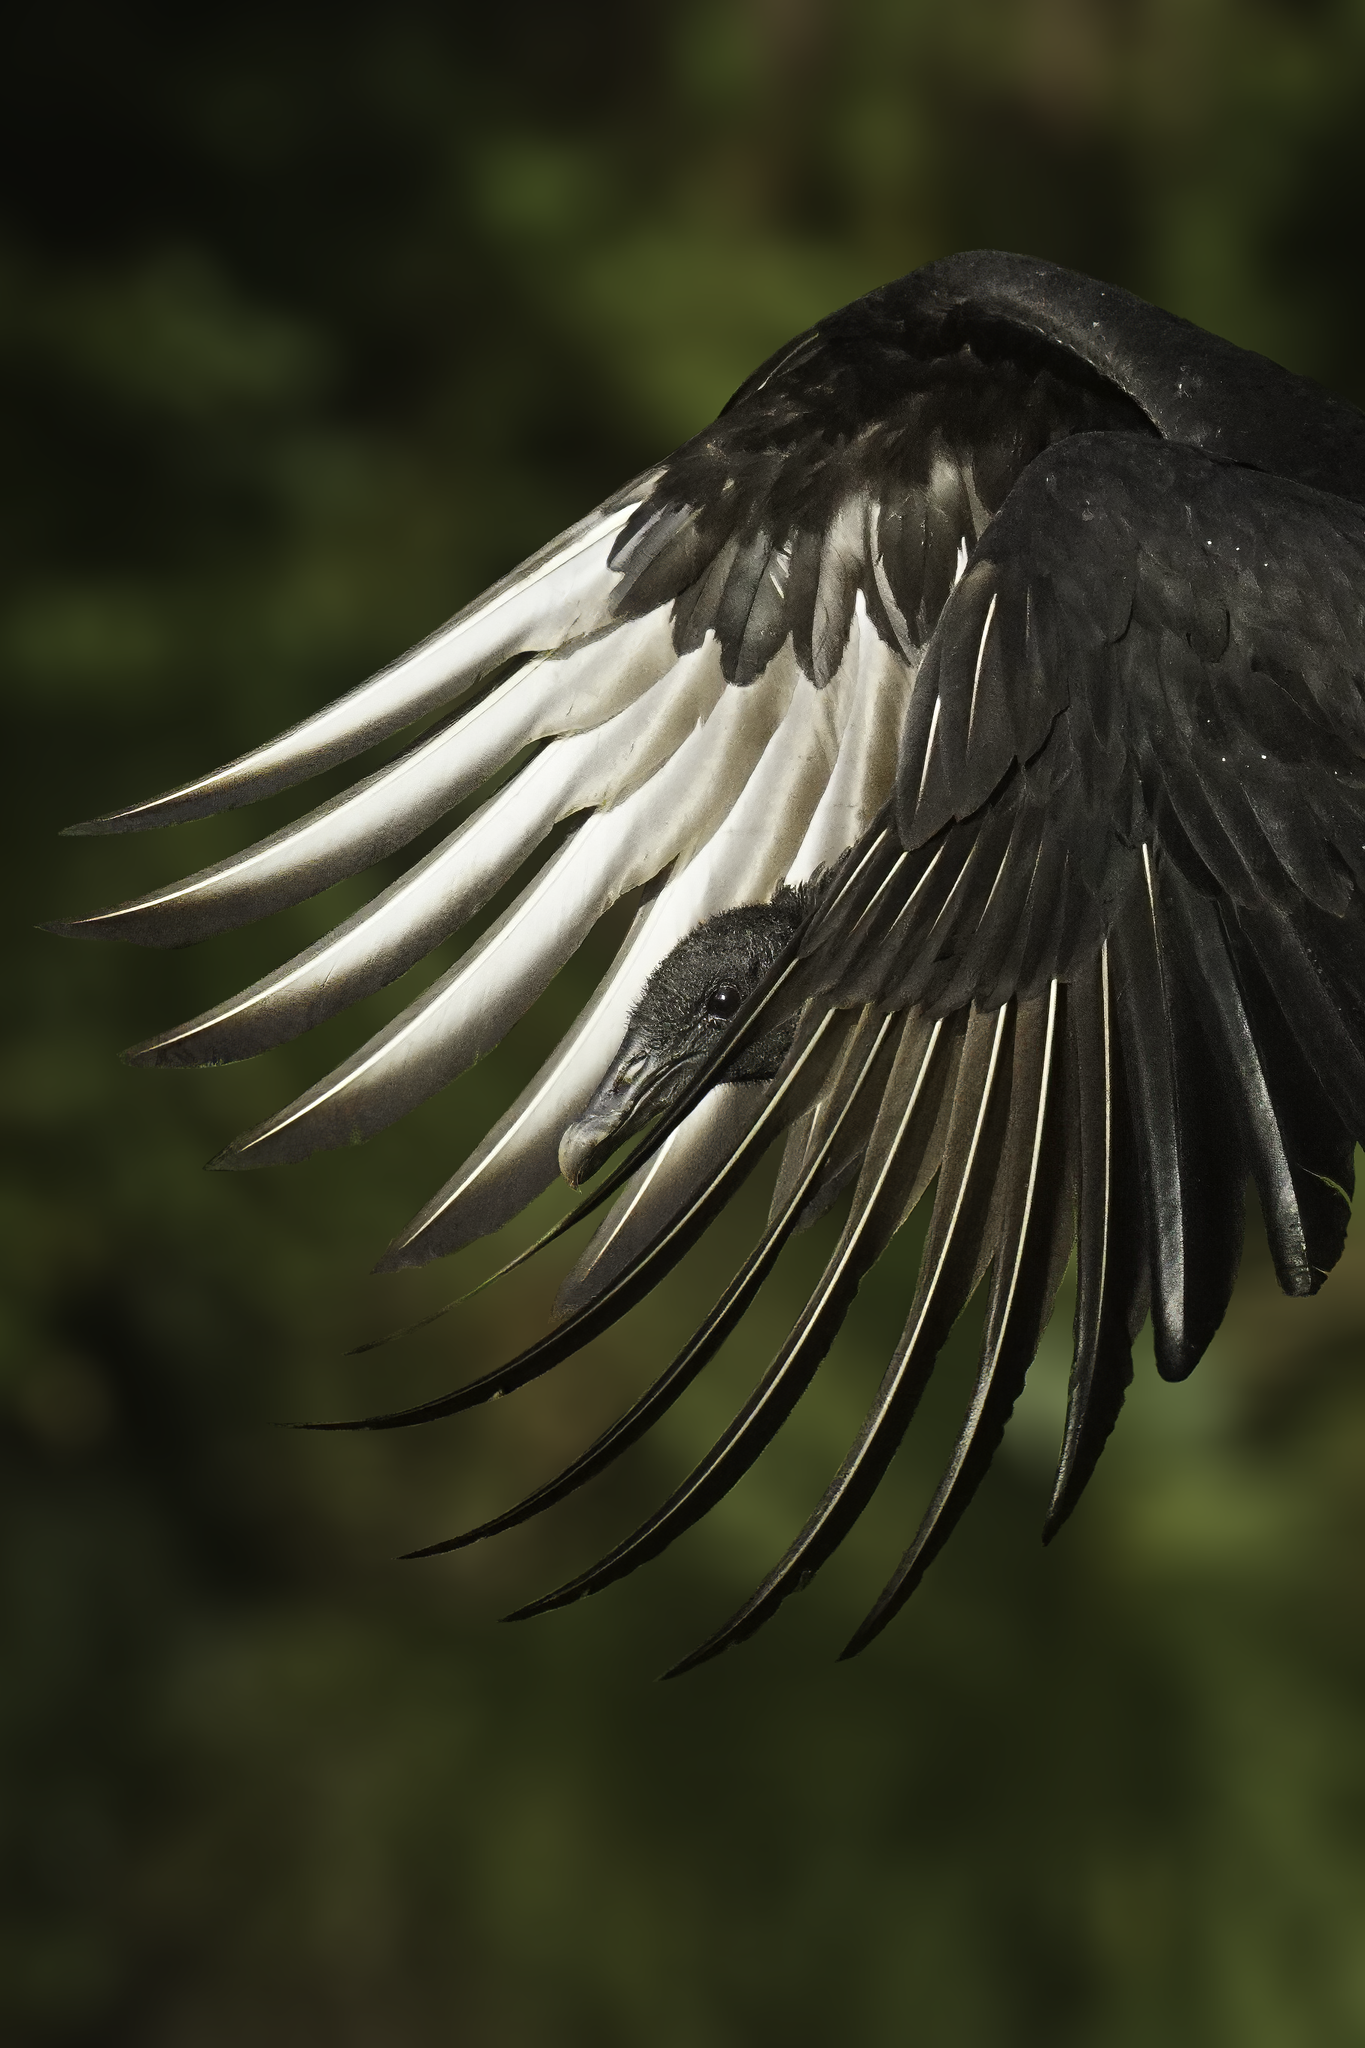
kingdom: Animalia
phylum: Chordata
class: Aves
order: Accipitriformes
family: Cathartidae
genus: Coragyps
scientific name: Coragyps atratus
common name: Black vulture
